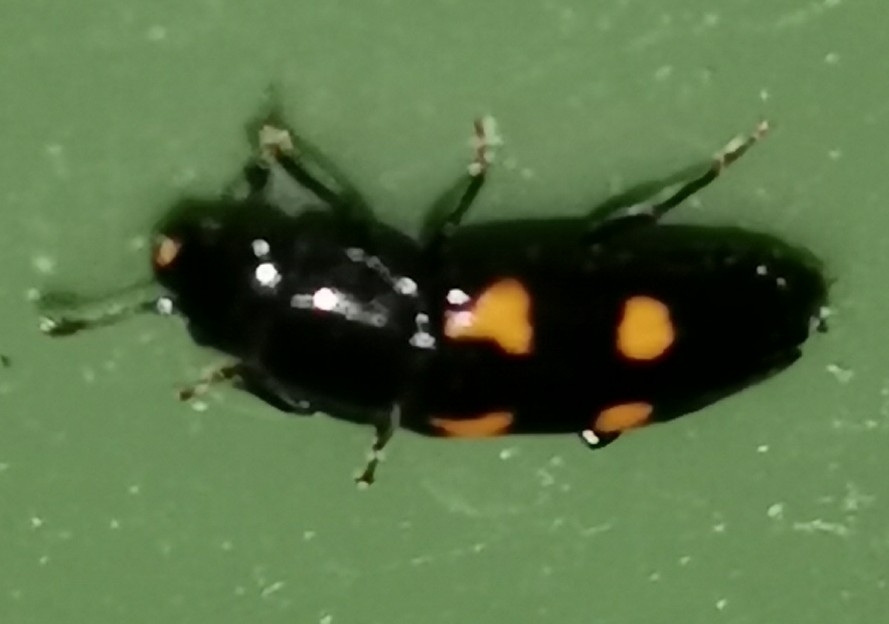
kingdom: Animalia
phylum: Arthropoda
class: Insecta
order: Coleoptera
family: Nitidulidae
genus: Glischrochilus
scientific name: Glischrochilus hortensis
